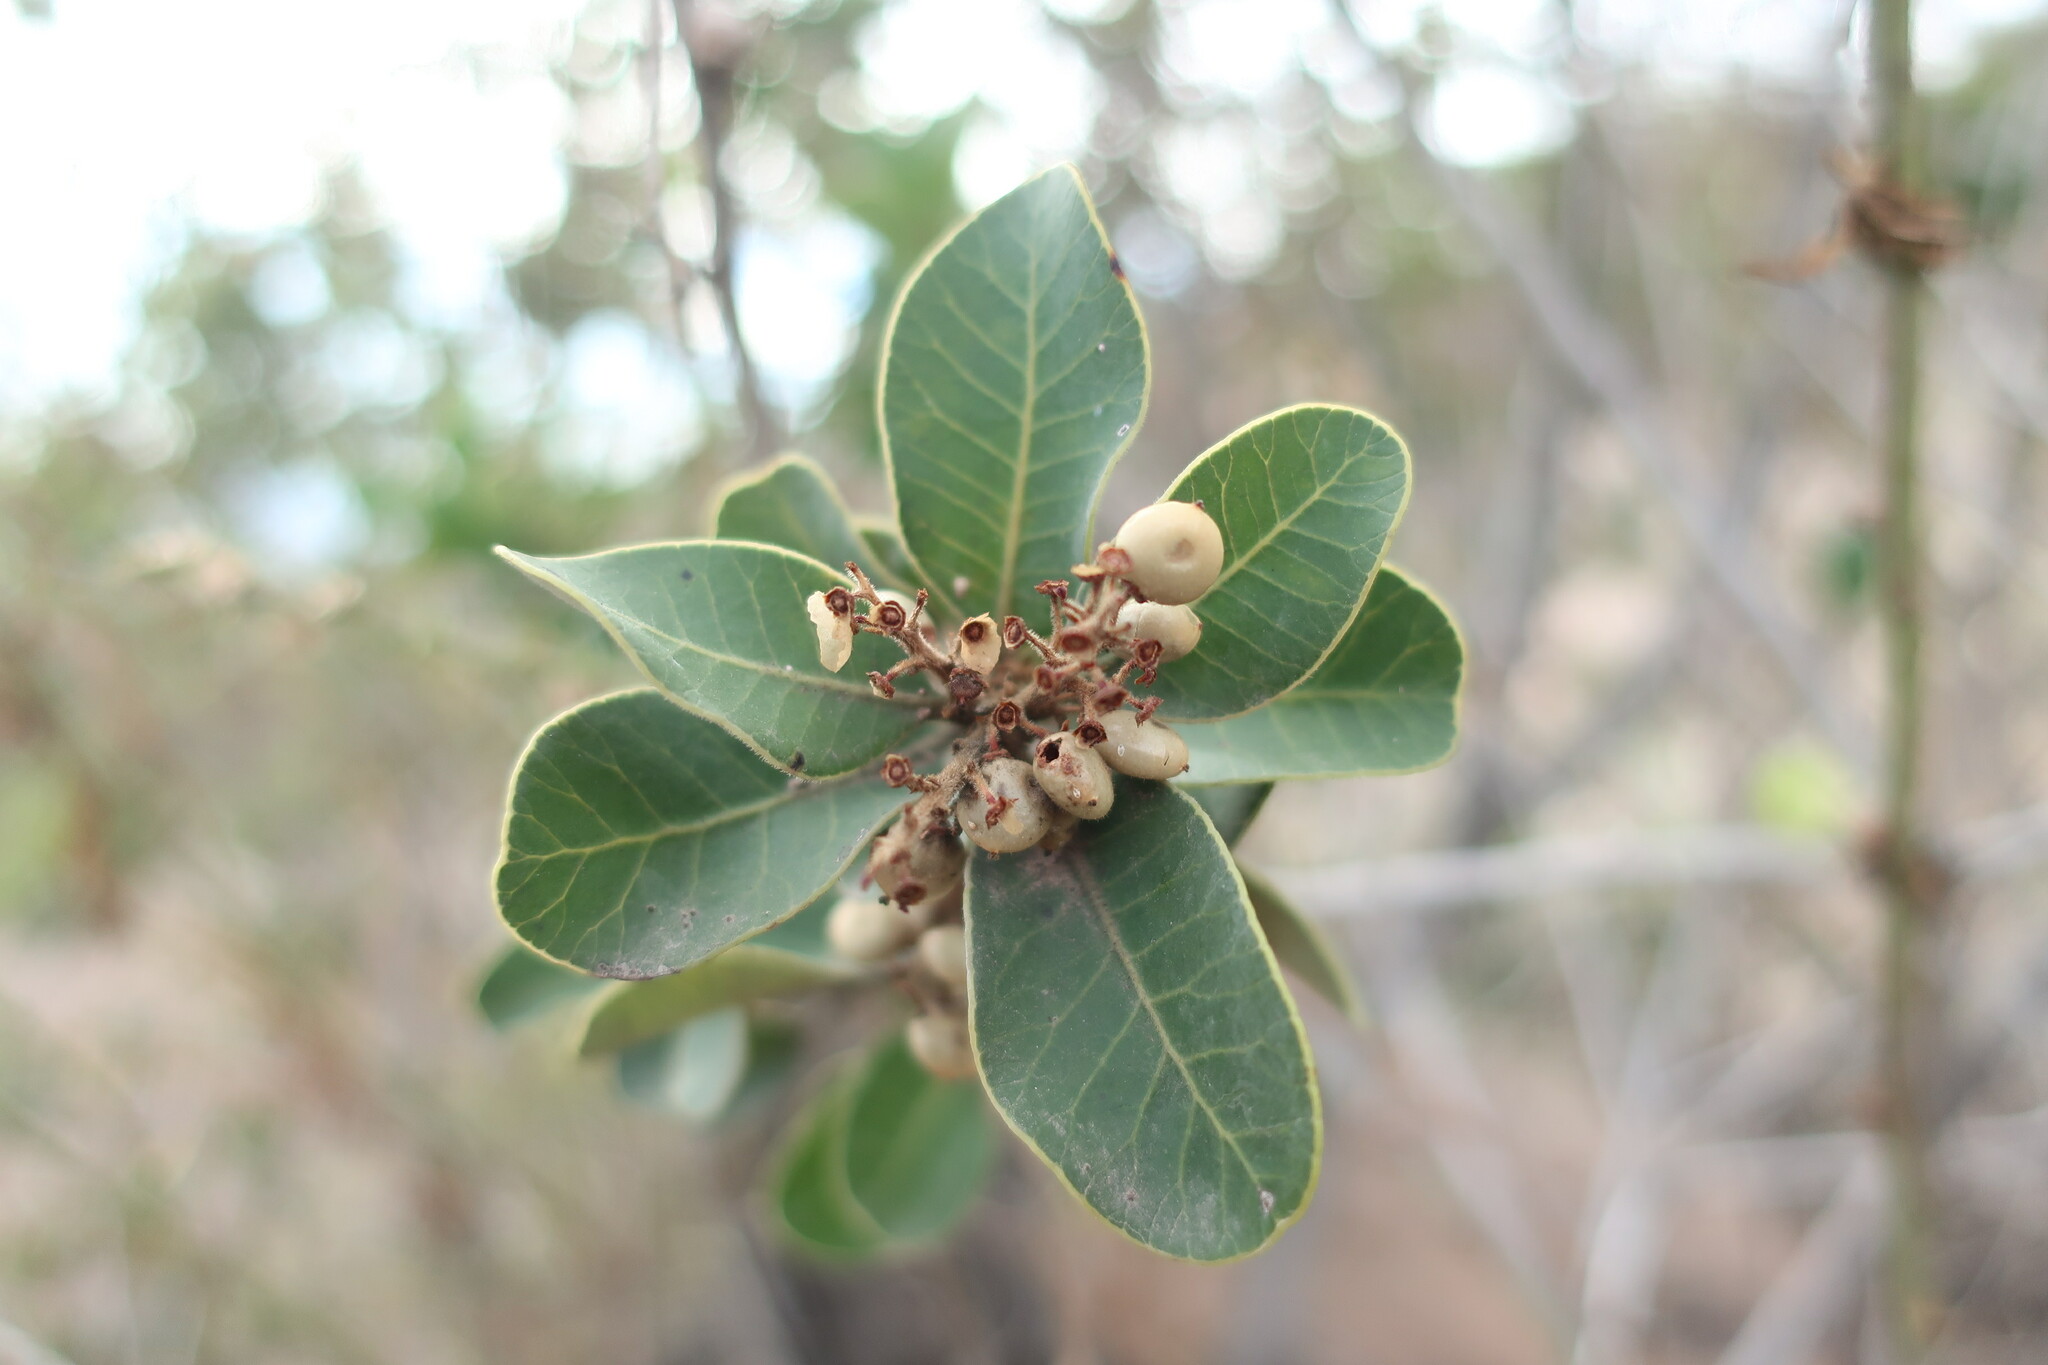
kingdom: Plantae
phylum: Tracheophyta
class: Magnoliopsida
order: Sapindales
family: Anacardiaceae
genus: Lithraea
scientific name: Lithraea caustica
